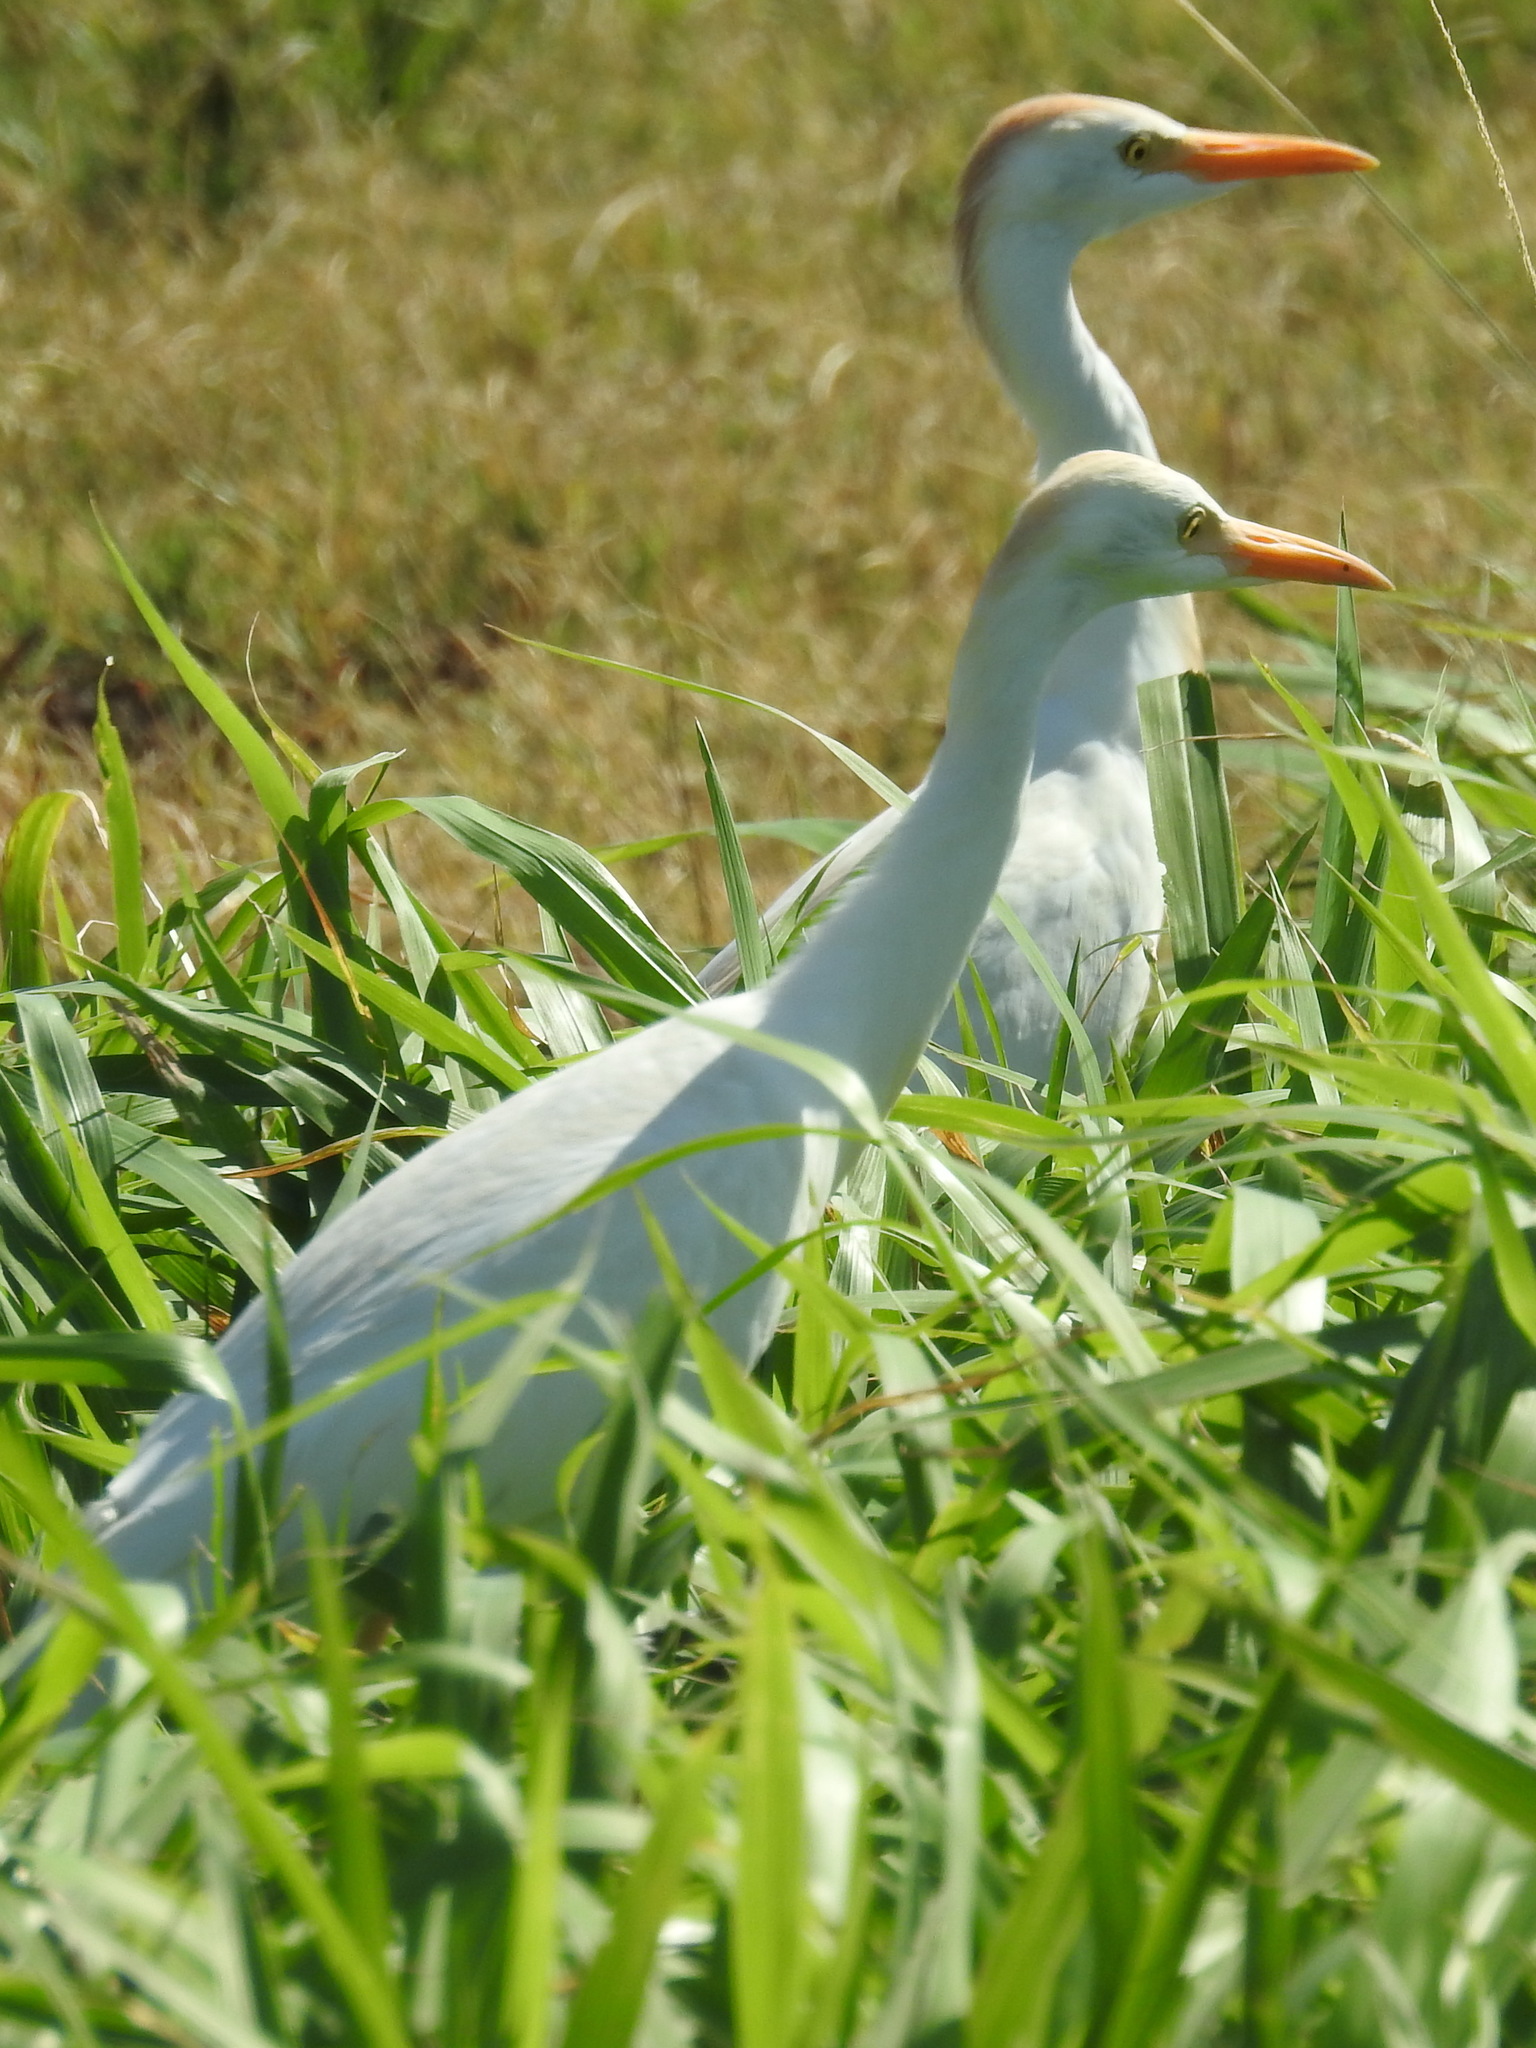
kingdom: Animalia
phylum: Chordata
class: Aves
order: Pelecaniformes
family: Ardeidae
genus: Bubulcus
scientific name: Bubulcus ibis
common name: Cattle egret
